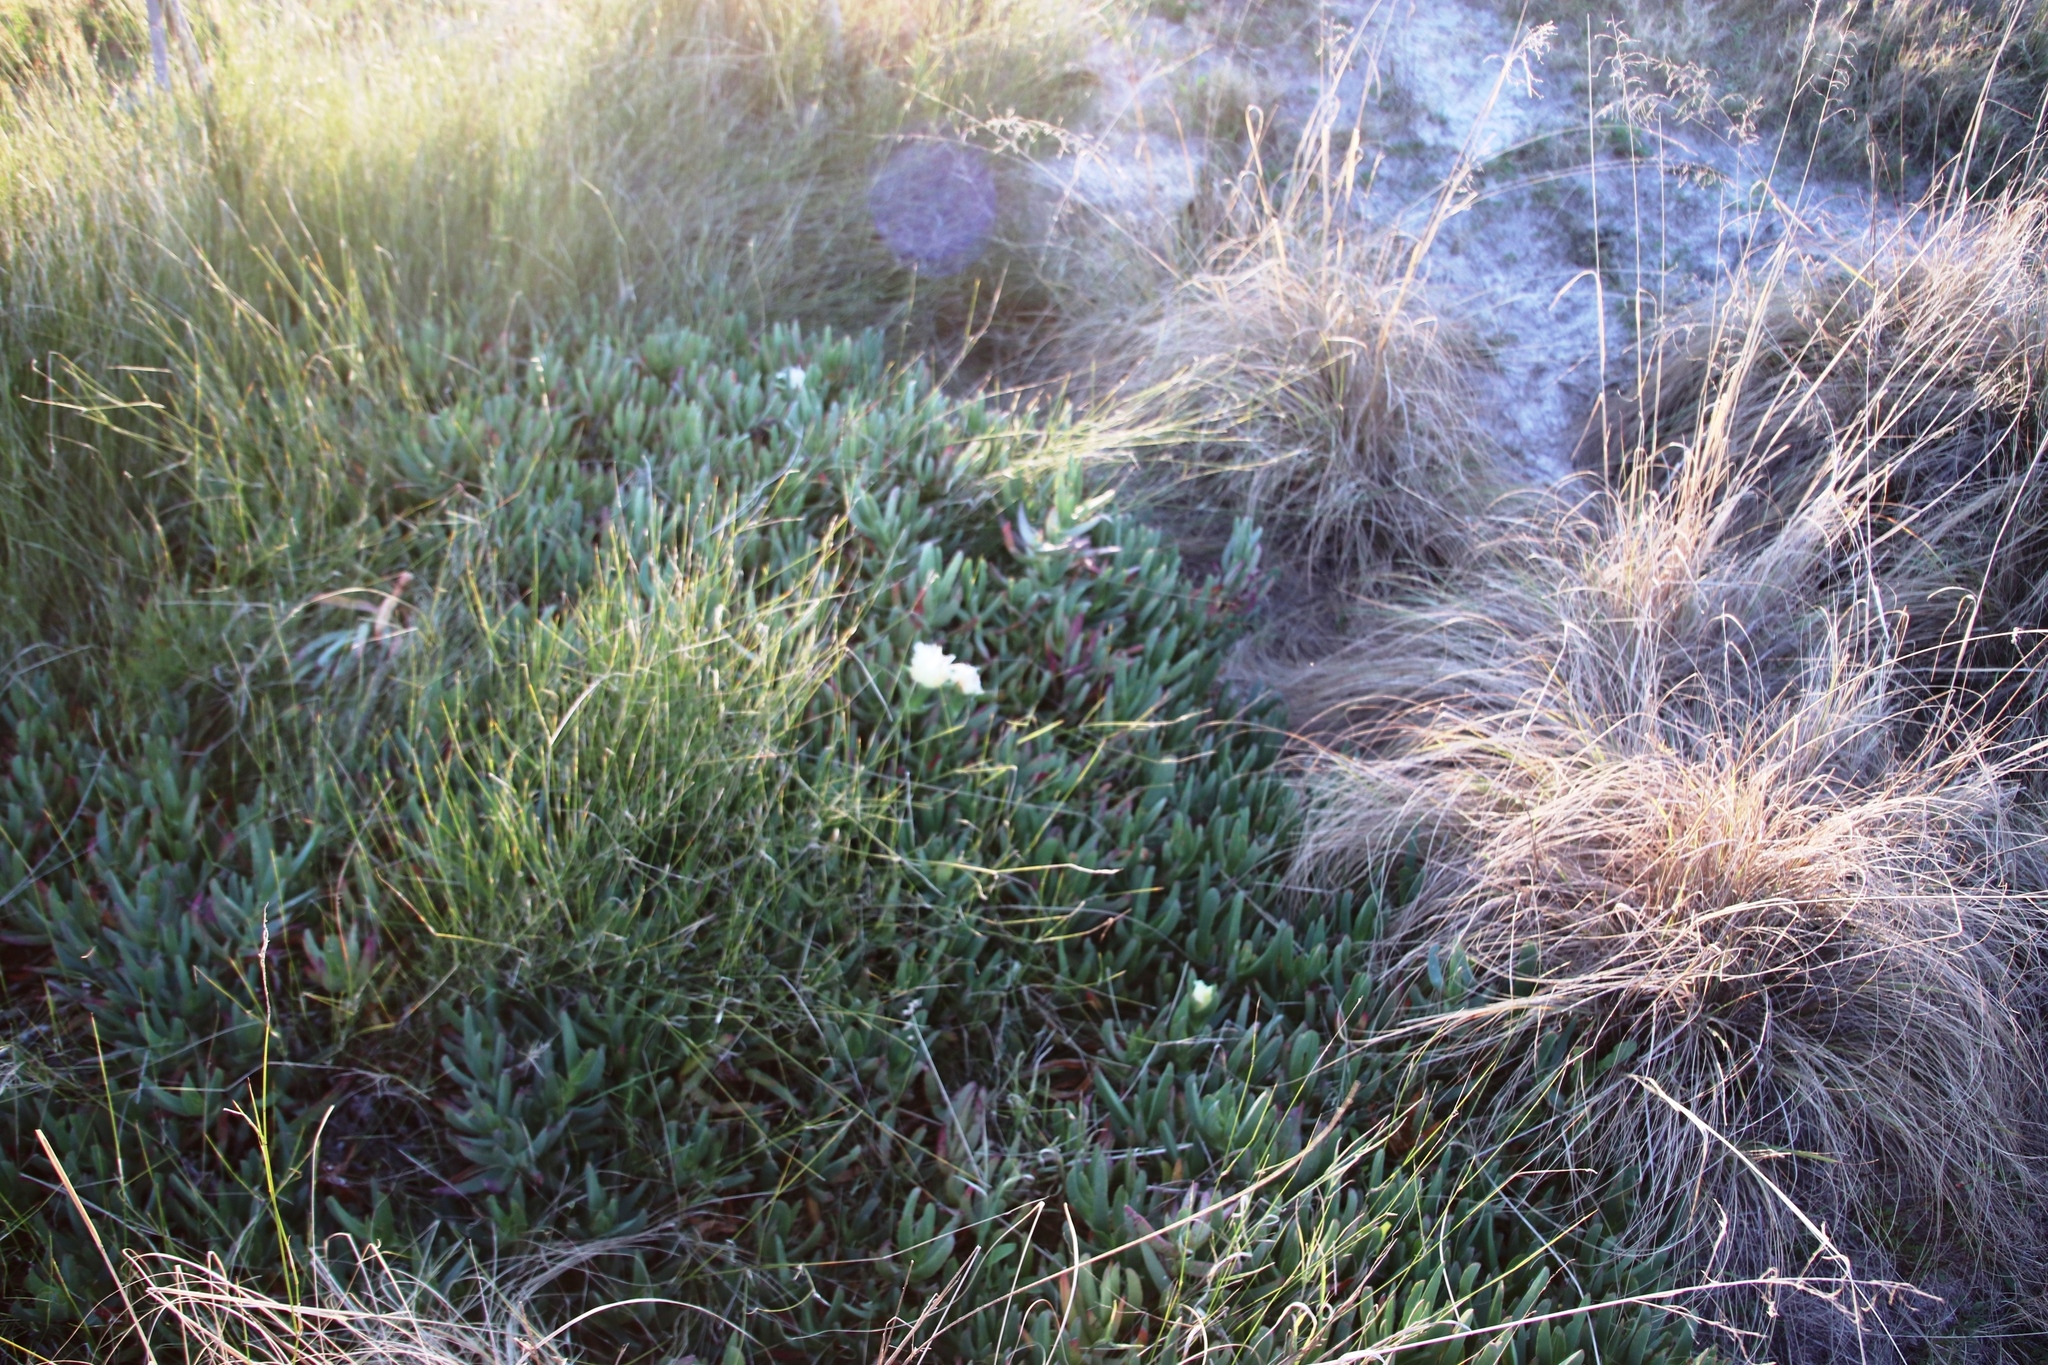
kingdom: Plantae
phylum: Tracheophyta
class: Magnoliopsida
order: Caryophyllales
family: Aizoaceae
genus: Carpobrotus
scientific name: Carpobrotus edulis
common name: Hottentot-fig
